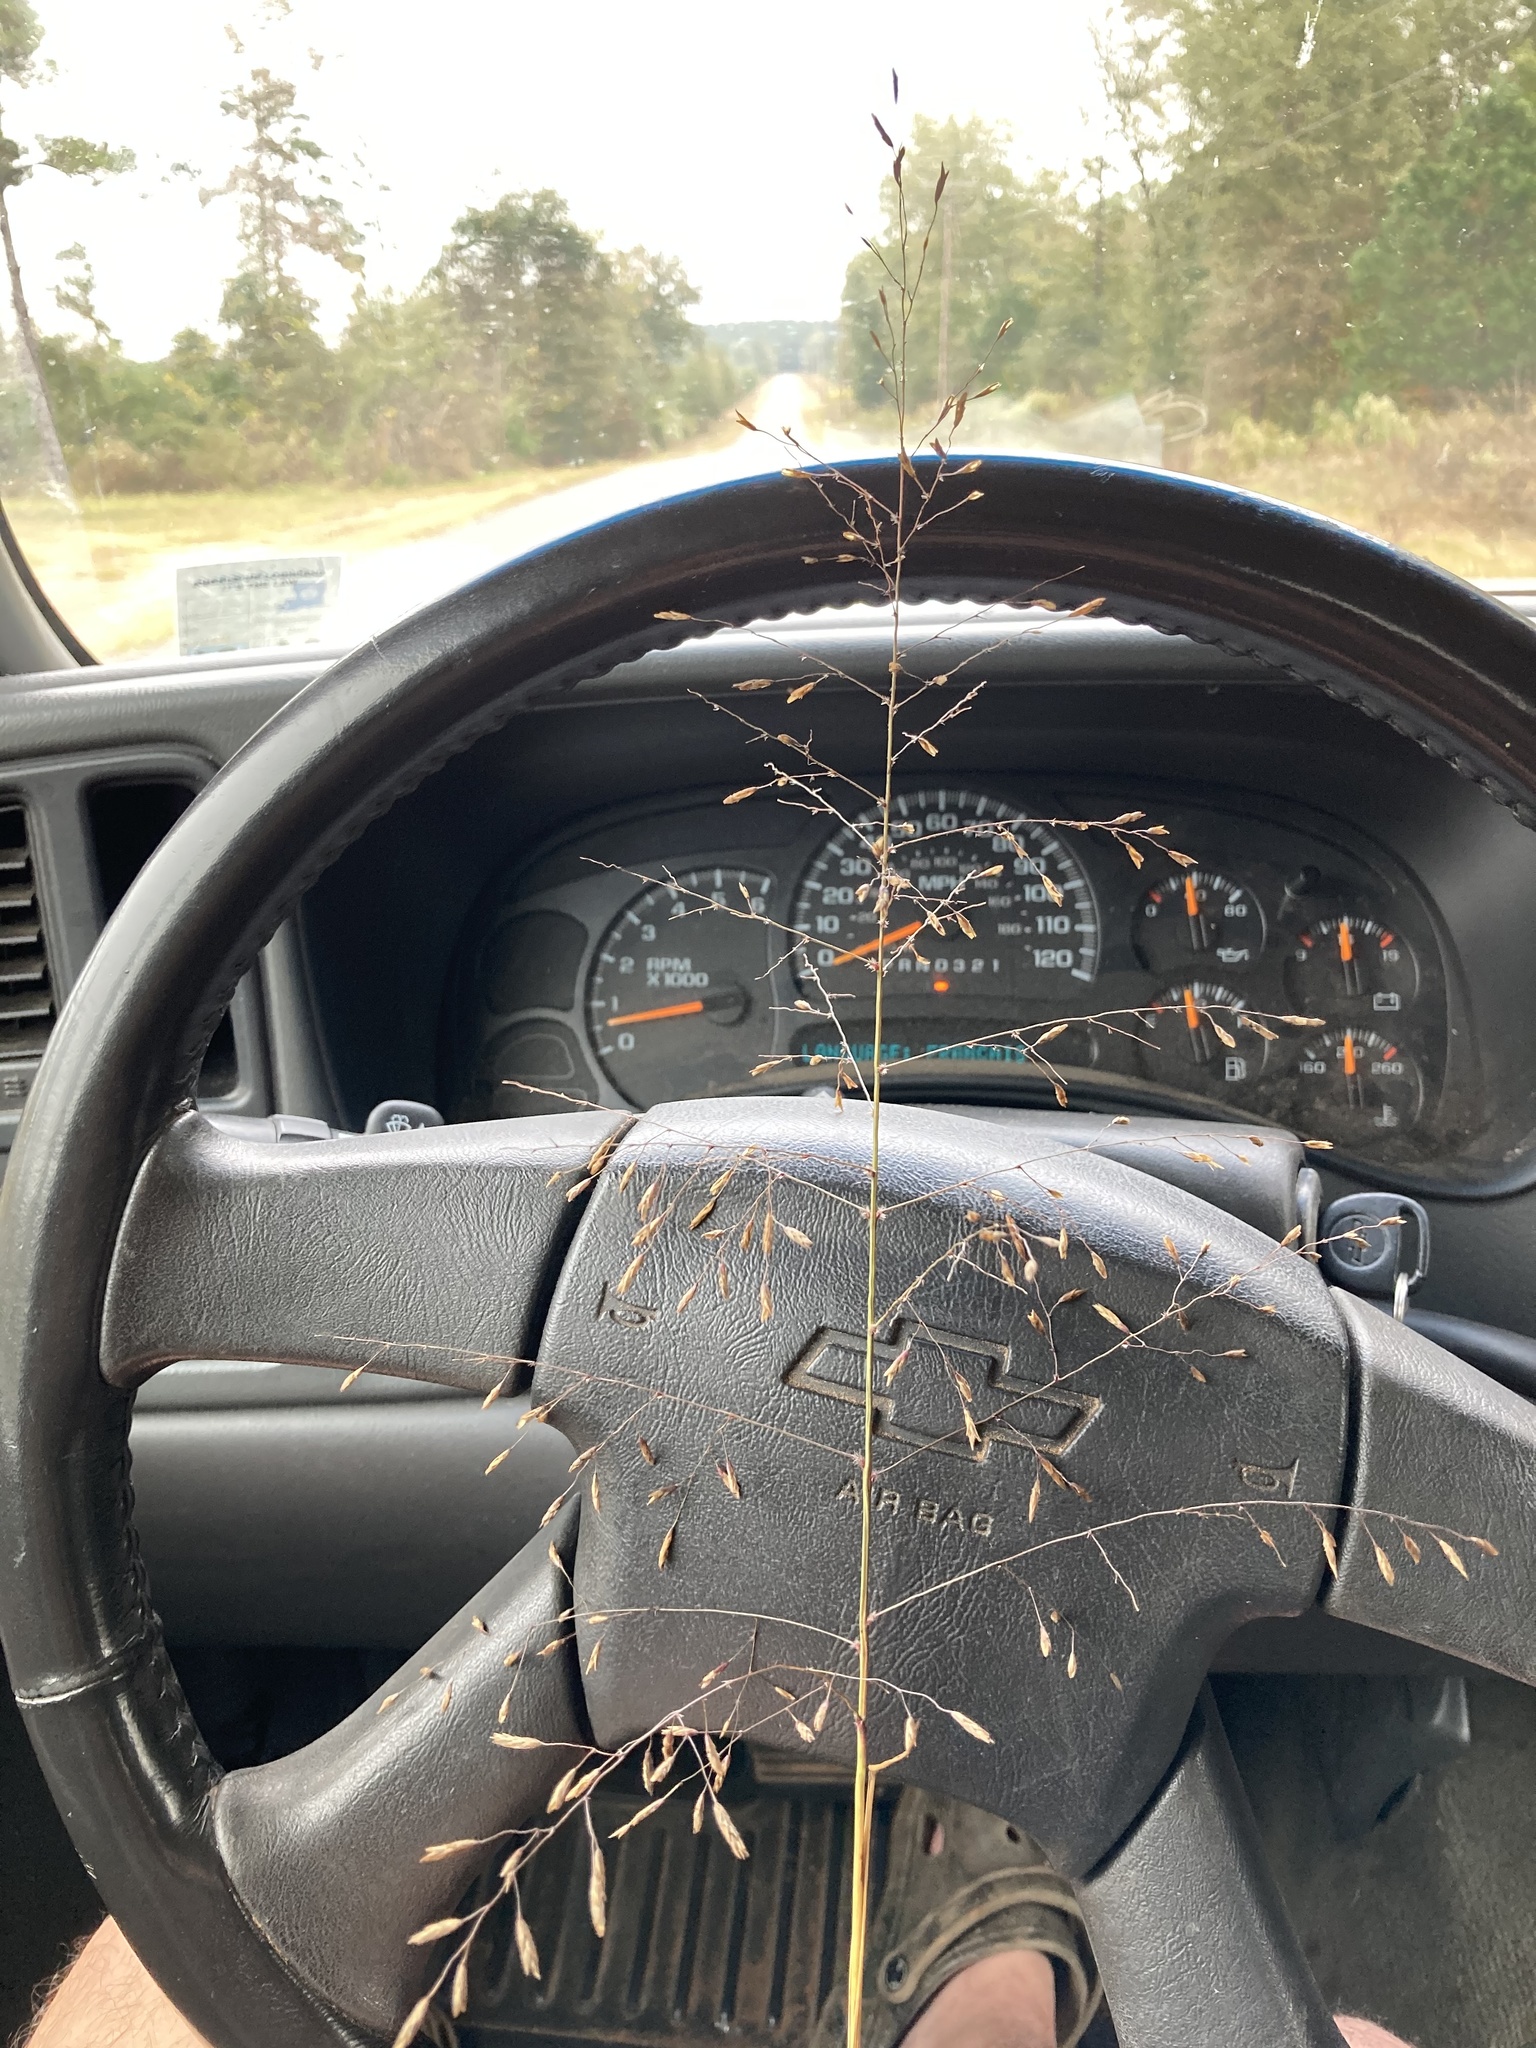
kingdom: Plantae
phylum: Tracheophyta
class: Liliopsida
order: Poales
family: Poaceae
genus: Tridens
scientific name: Tridens chapmanii
